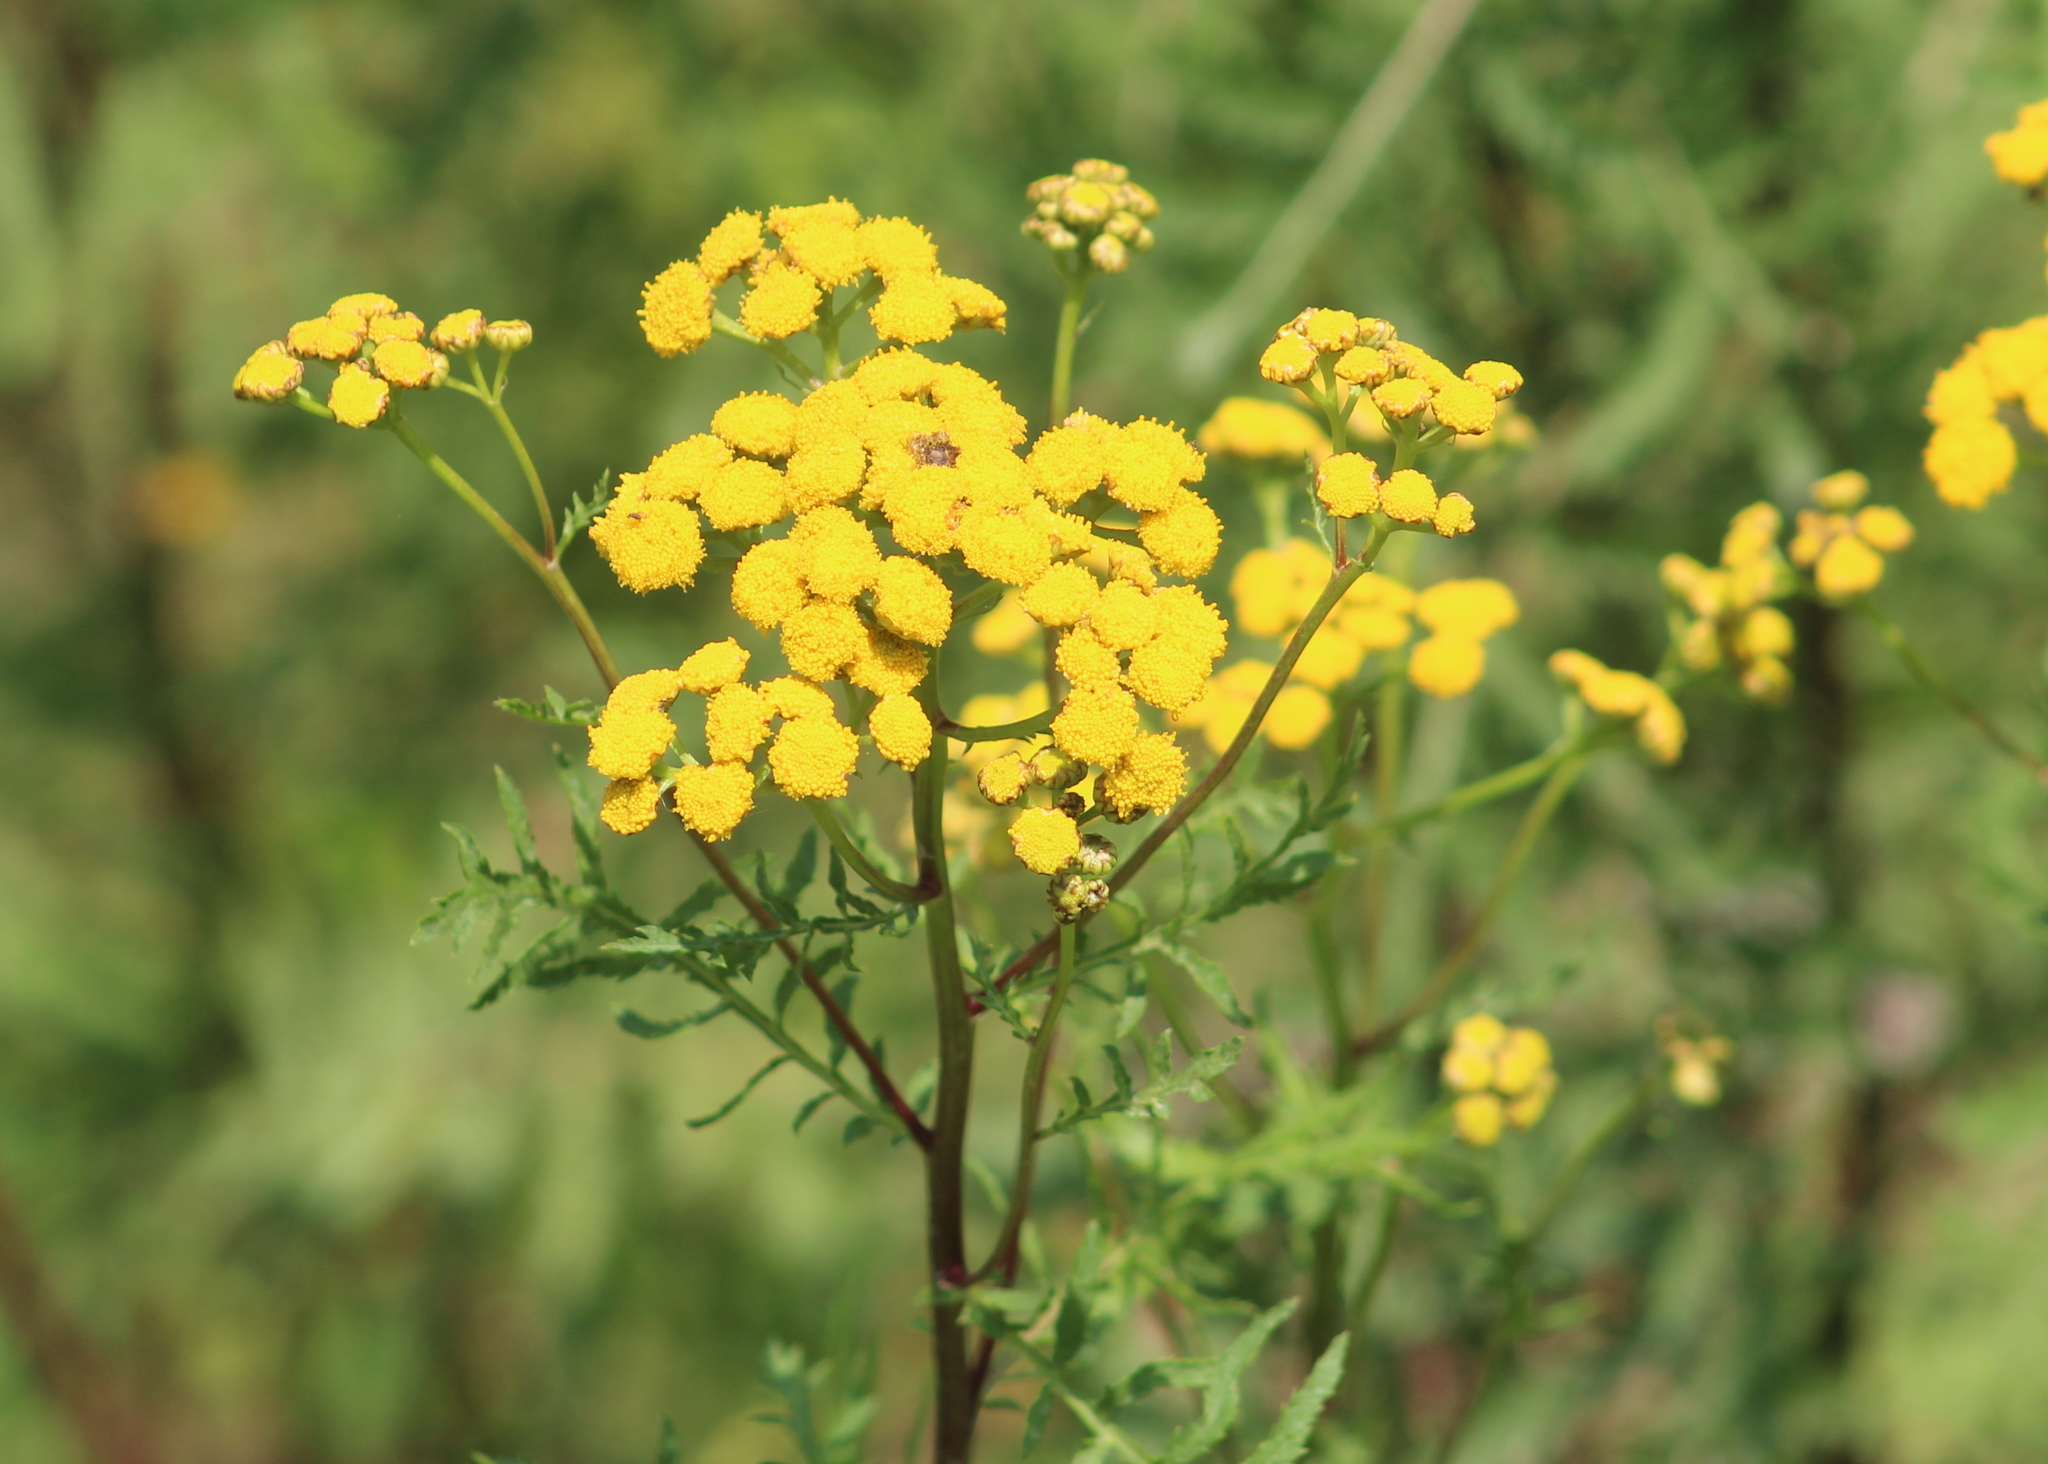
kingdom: Plantae
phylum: Tracheophyta
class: Magnoliopsida
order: Asterales
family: Asteraceae
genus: Tanacetum
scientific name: Tanacetum vulgare
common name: Common tansy
